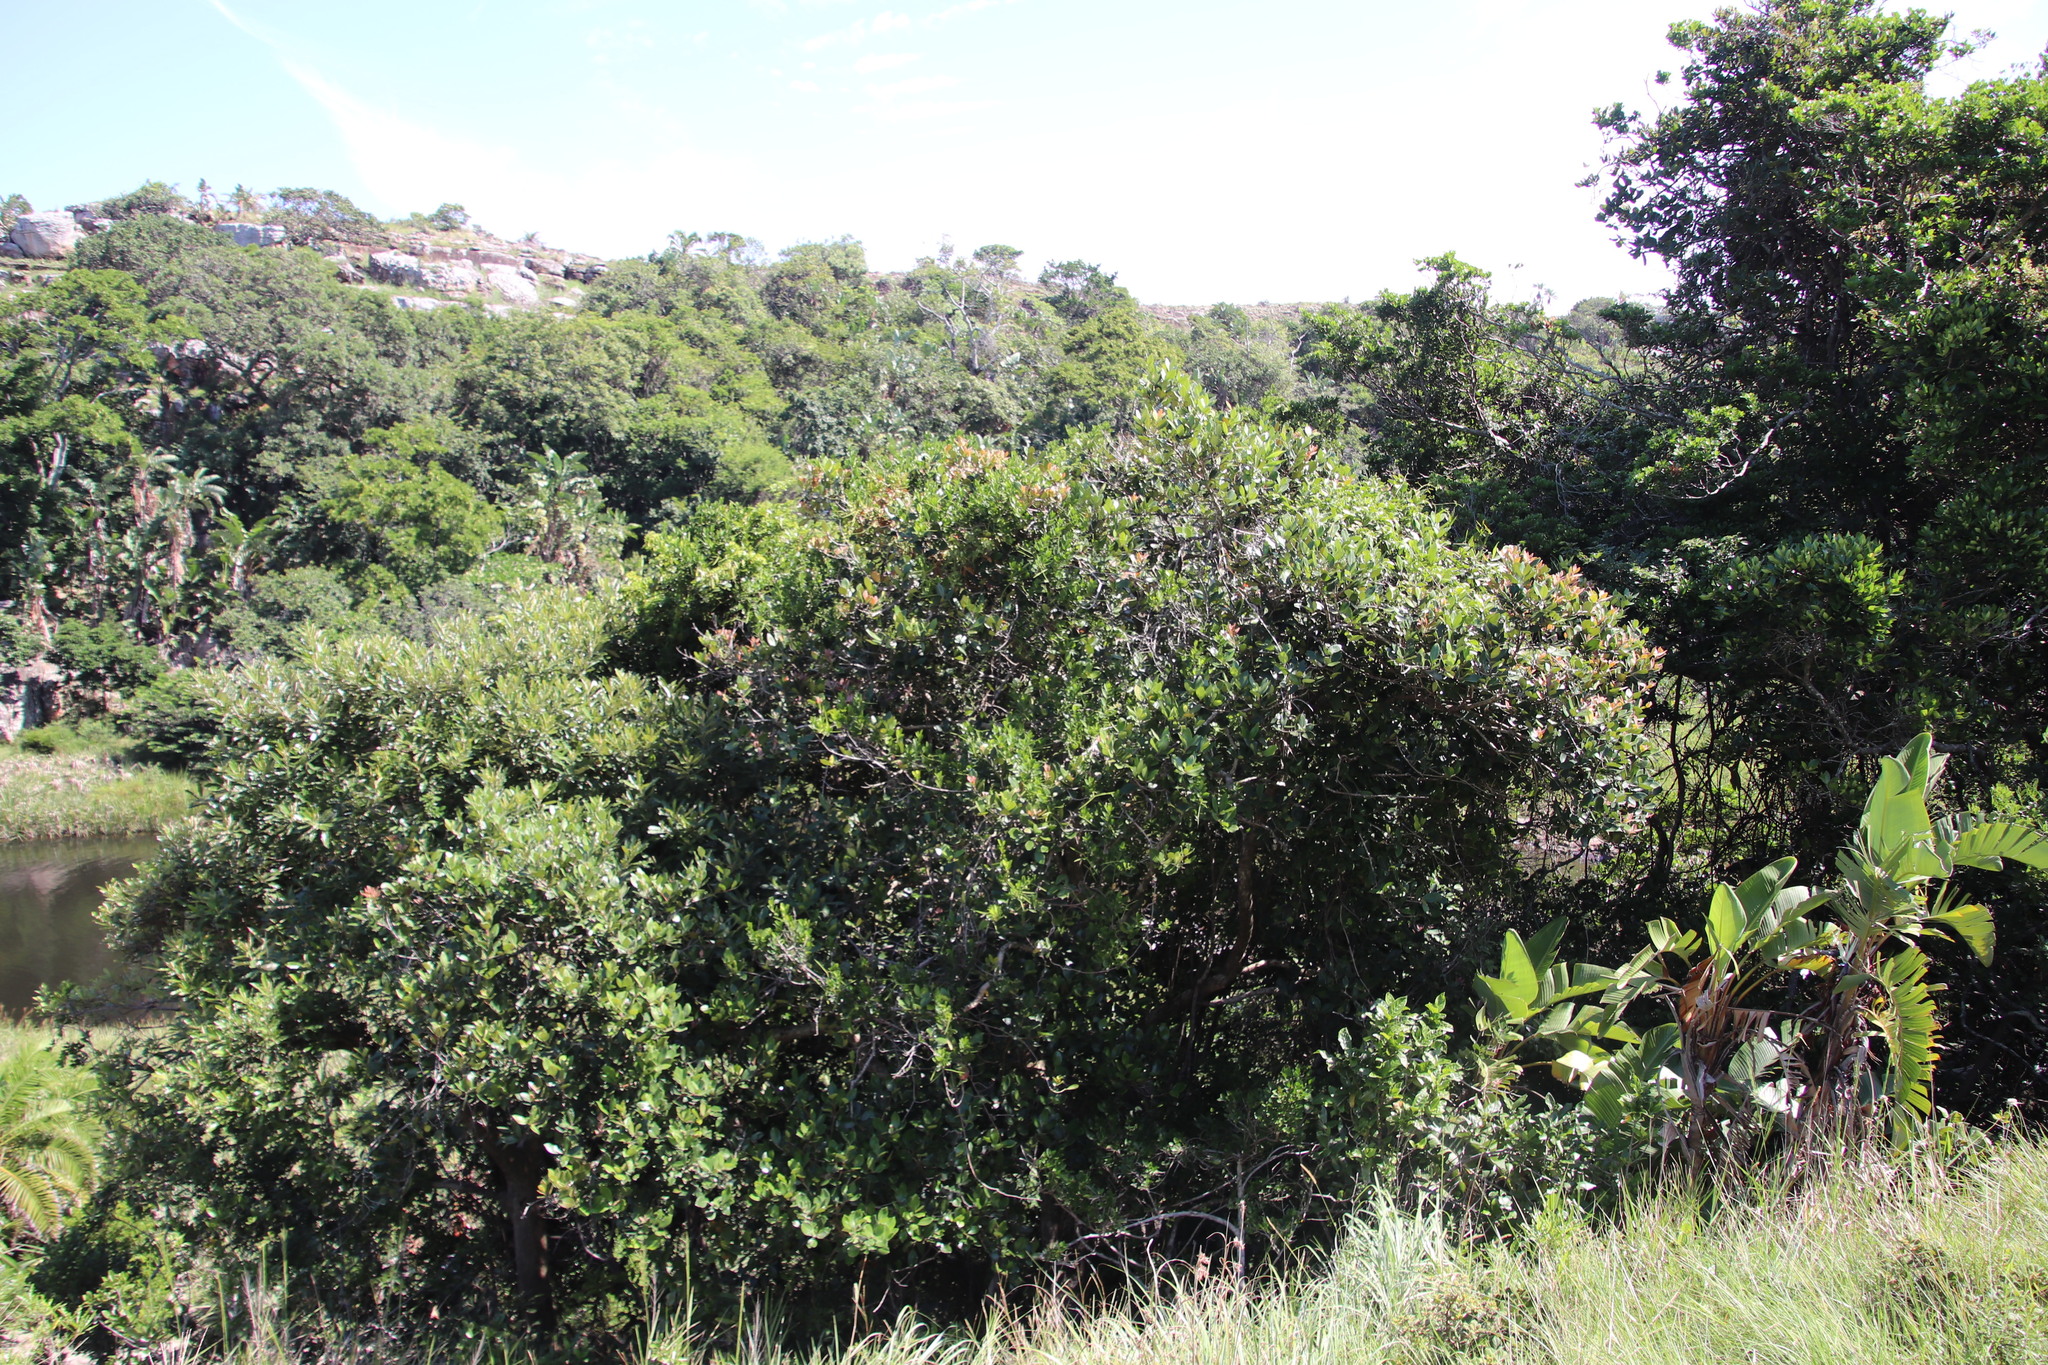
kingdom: Plantae
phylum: Tracheophyta
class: Magnoliopsida
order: Gentianales
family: Apocynaceae
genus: Secamone
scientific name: Secamone alpini
